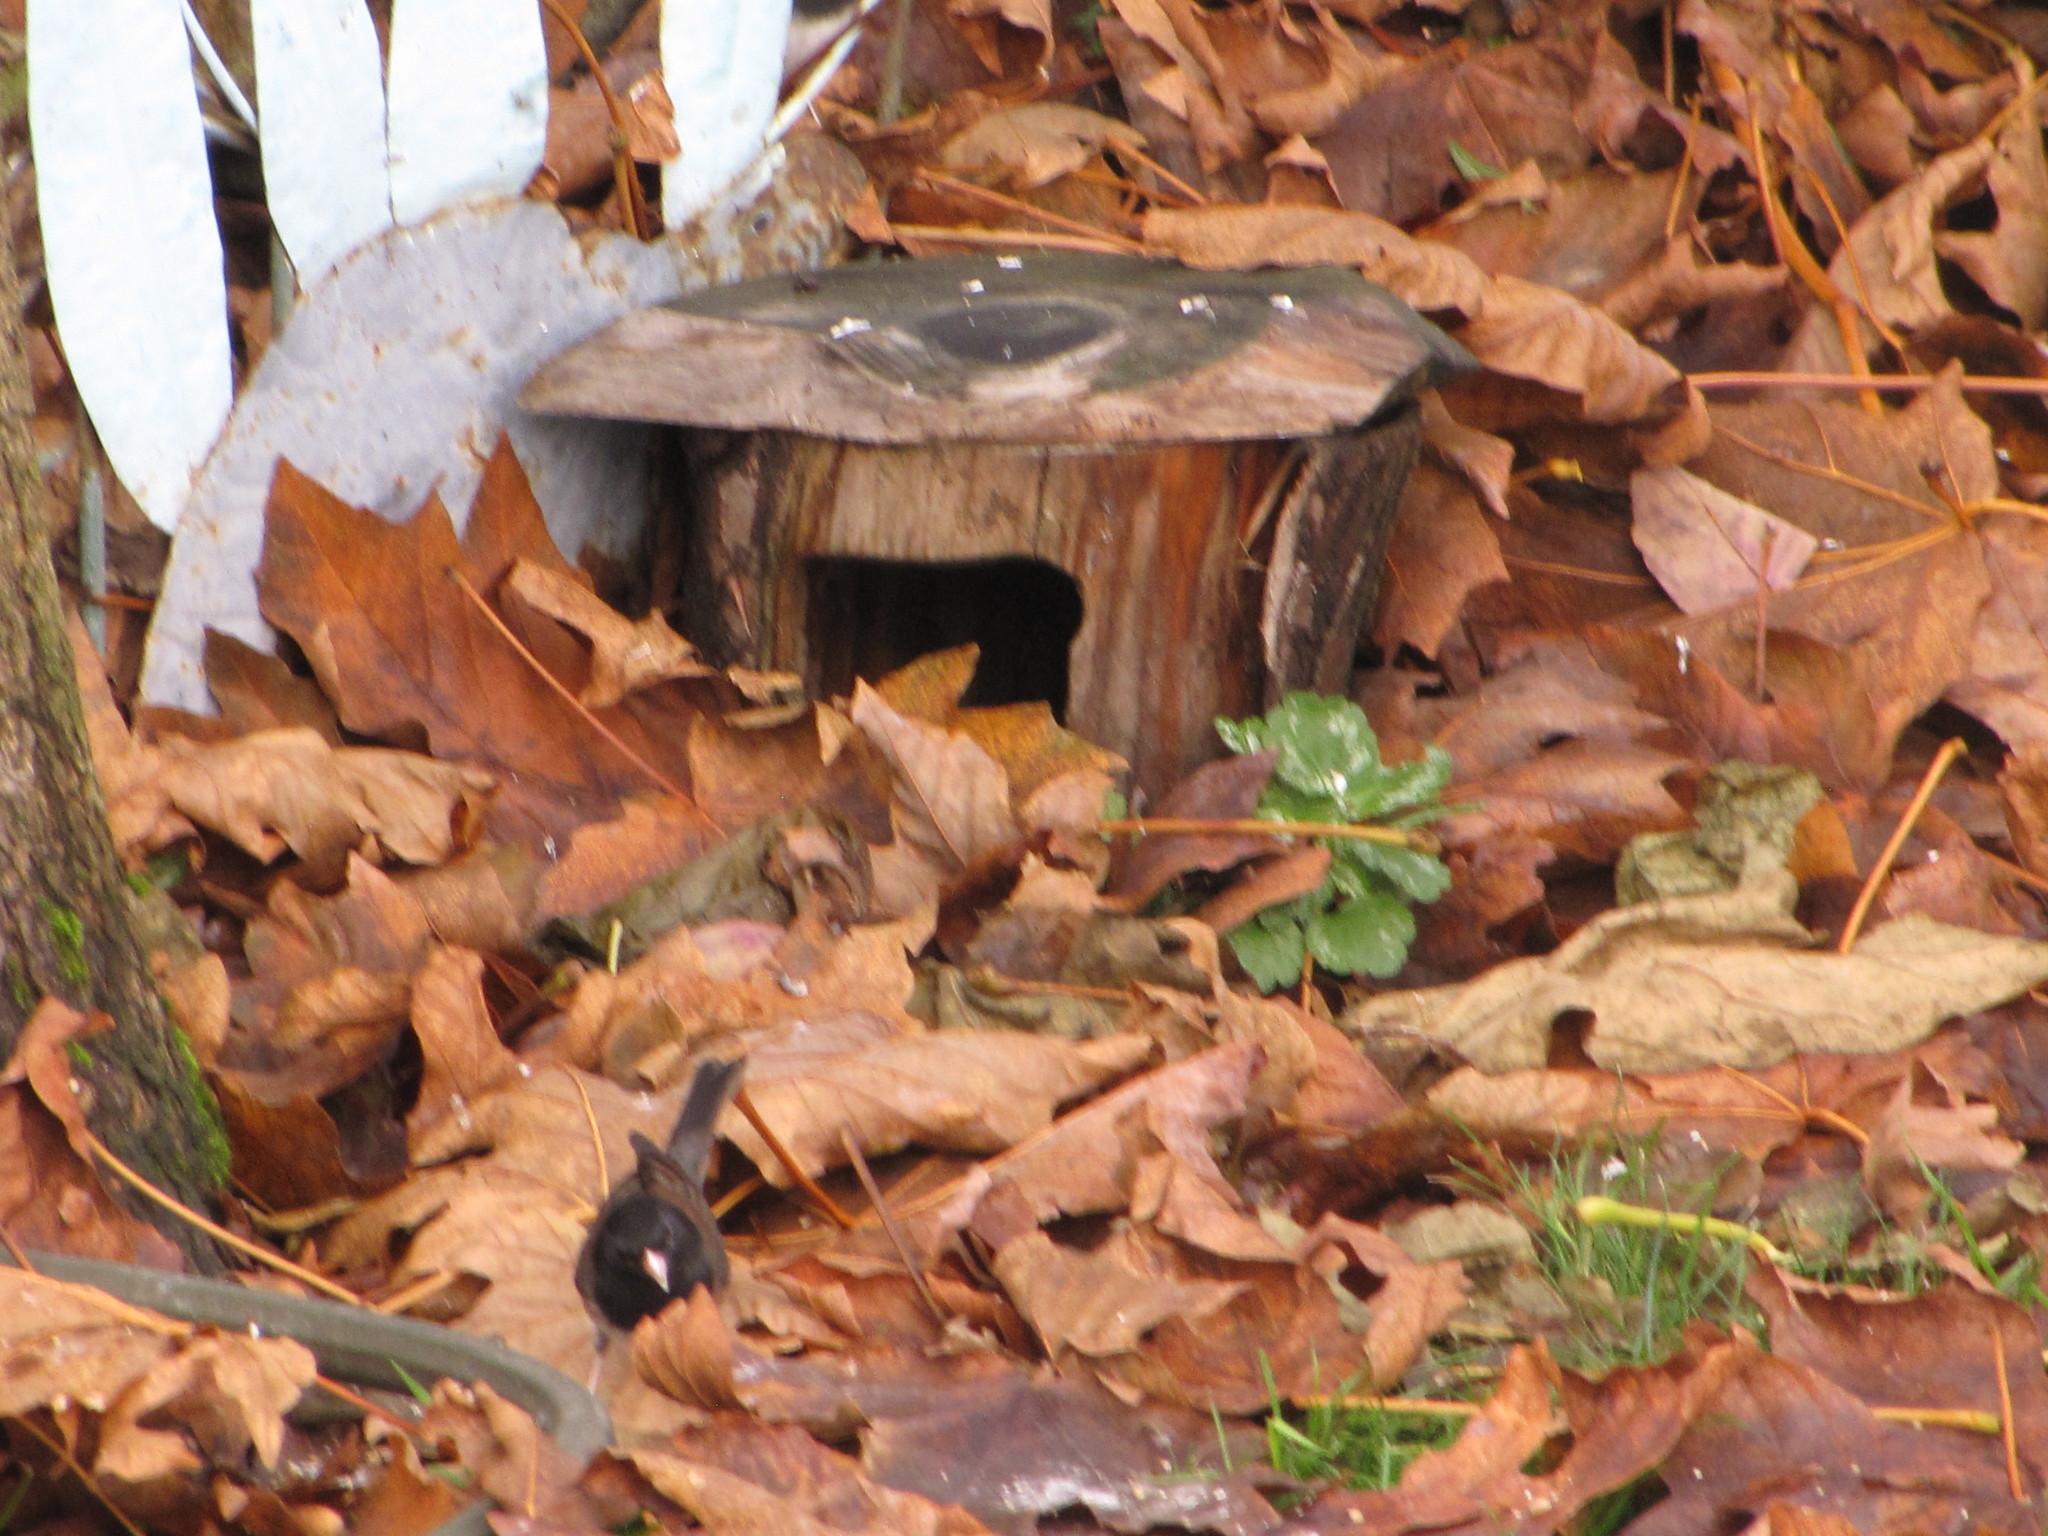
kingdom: Animalia
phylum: Chordata
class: Aves
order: Passeriformes
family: Passerellidae
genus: Junco
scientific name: Junco hyemalis
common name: Dark-eyed junco
